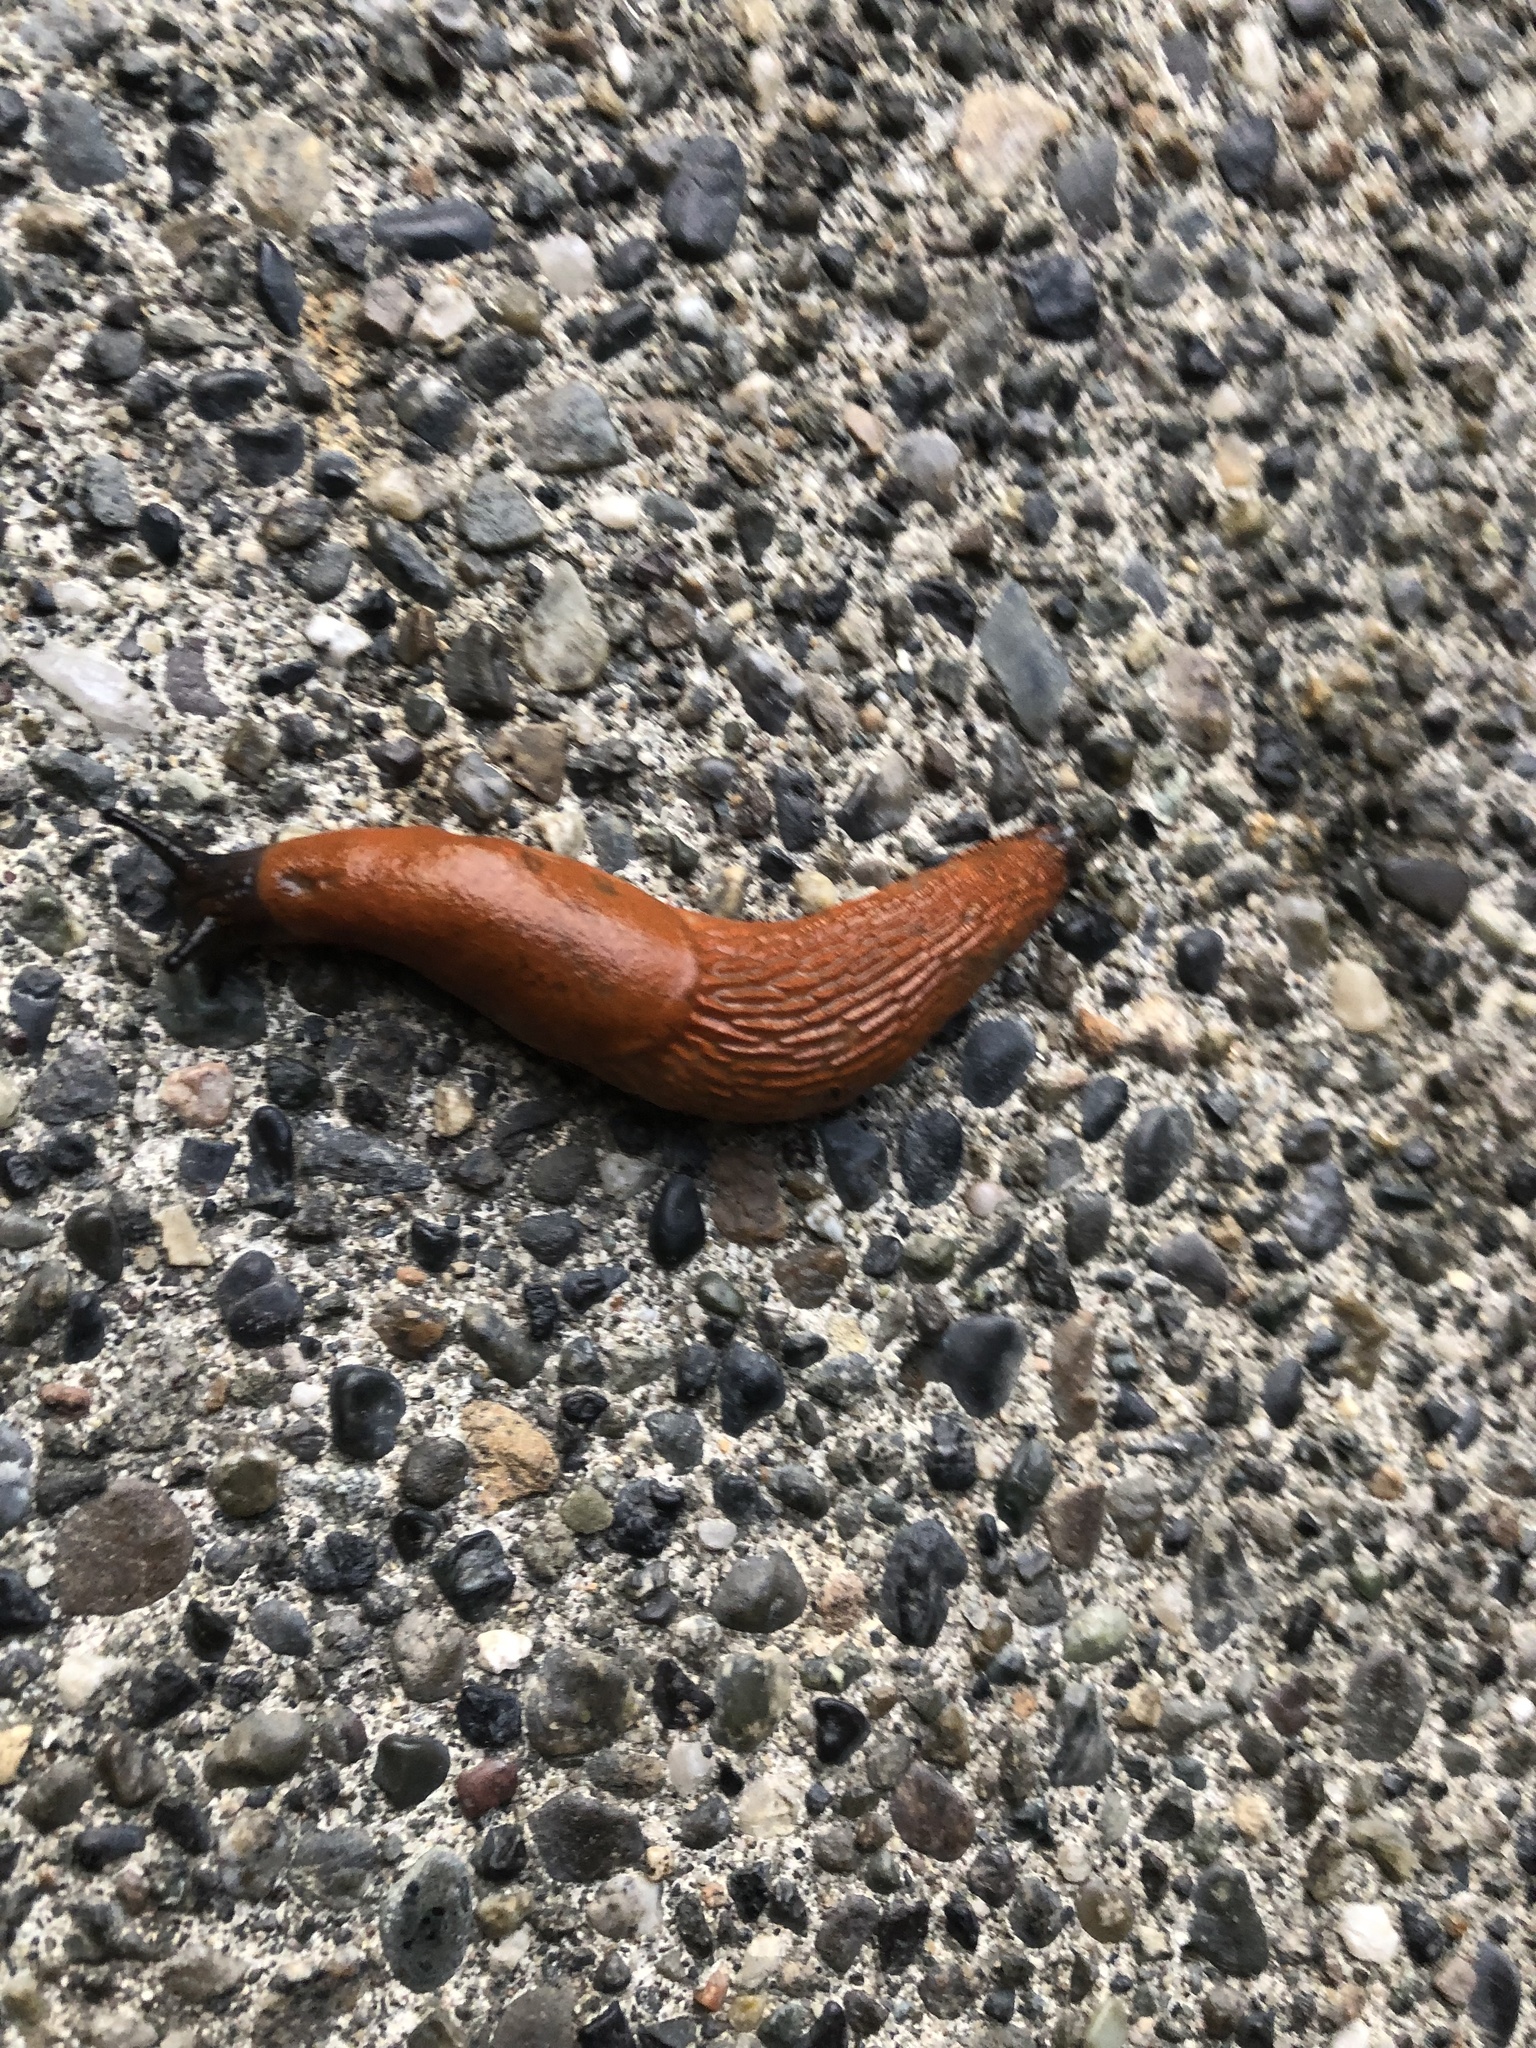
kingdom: Animalia
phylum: Mollusca
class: Gastropoda
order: Stylommatophora
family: Arionidae
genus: Arion
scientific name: Arion
